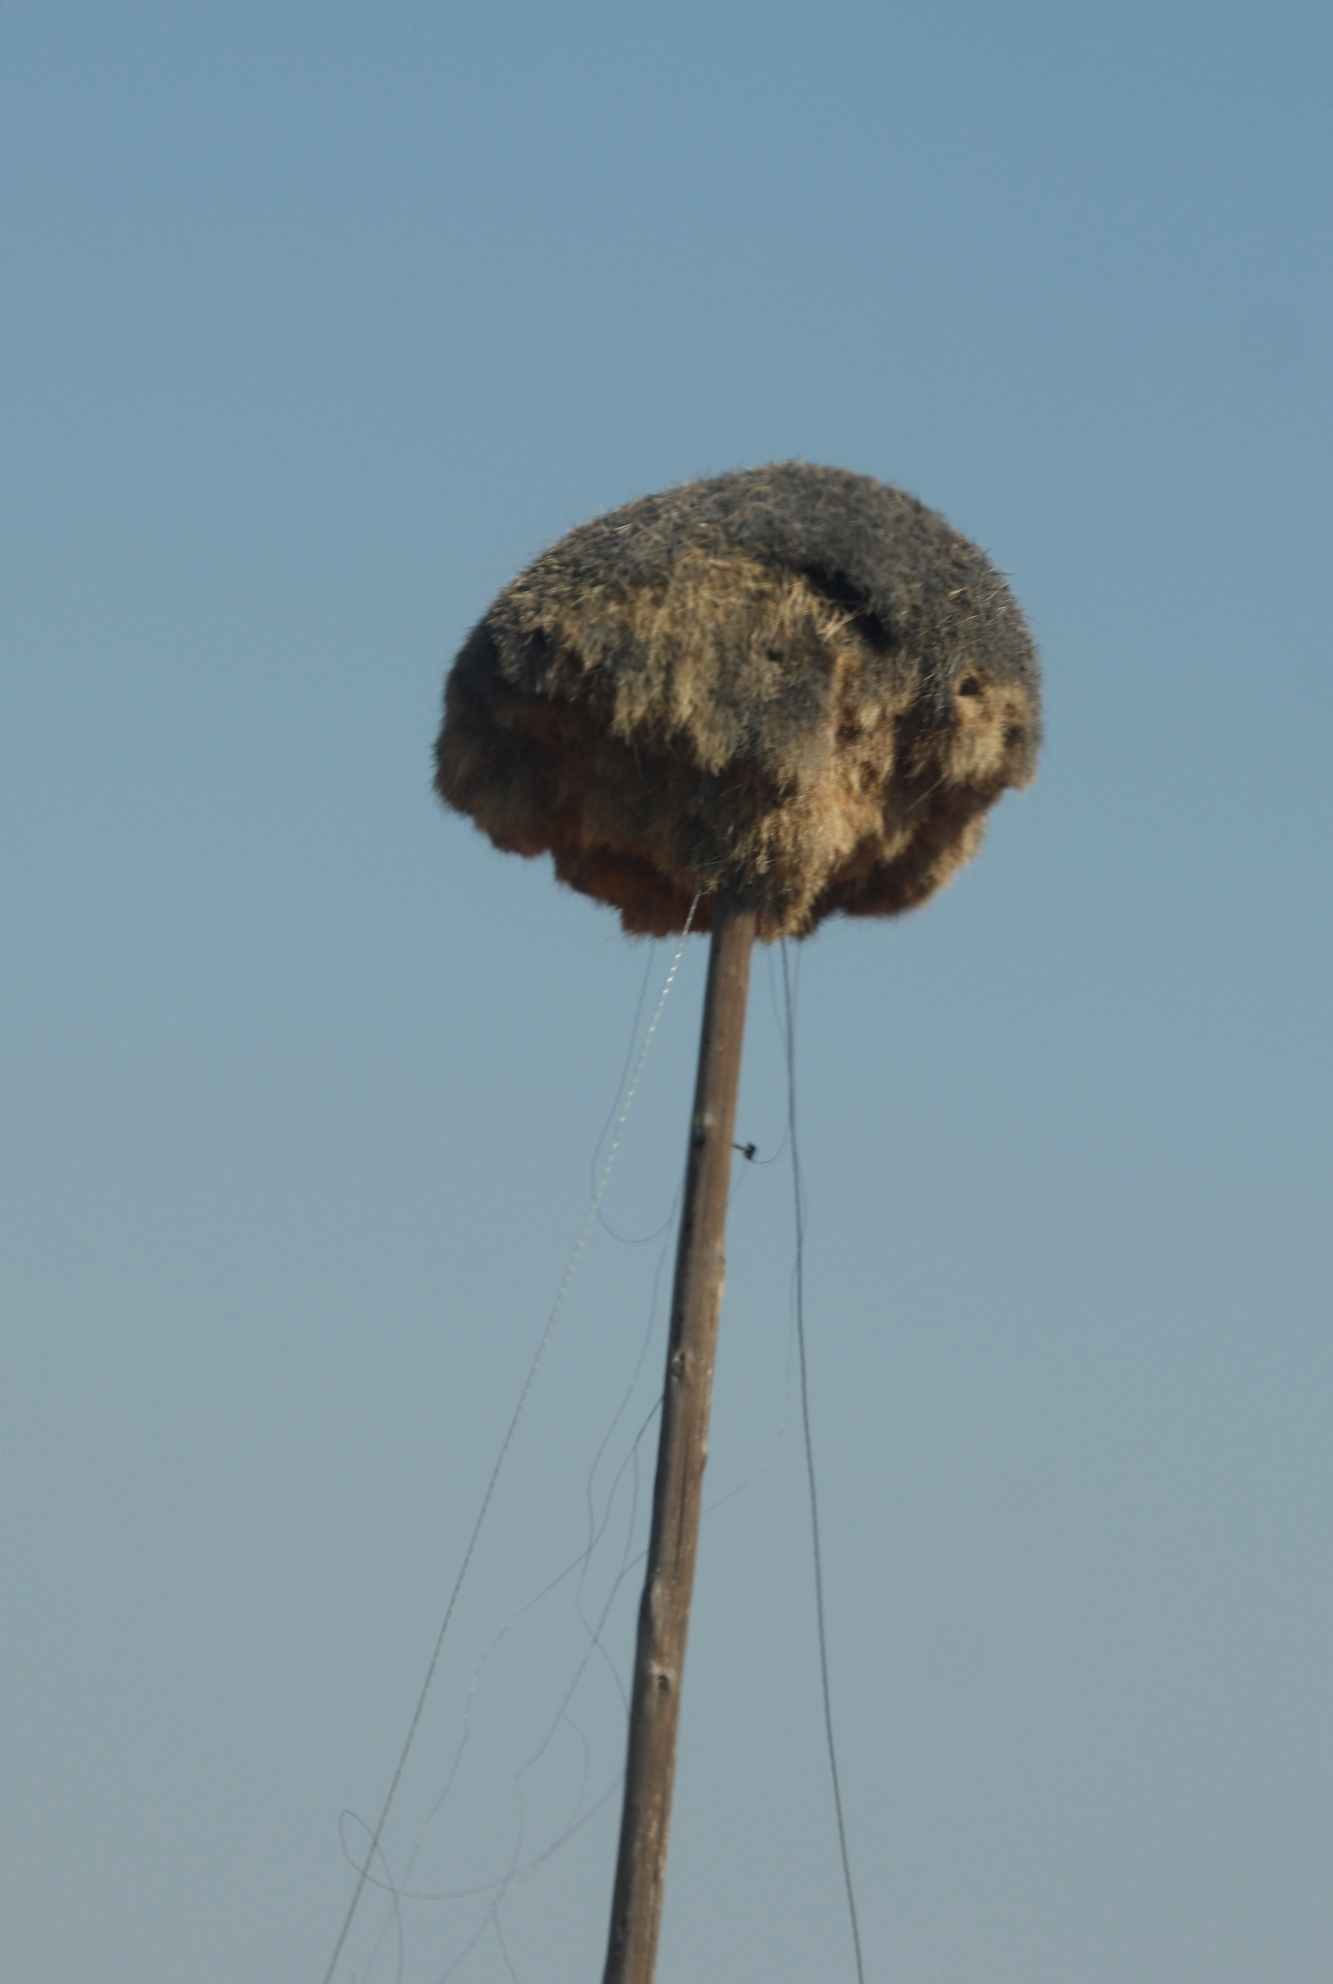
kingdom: Animalia
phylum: Chordata
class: Aves
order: Passeriformes
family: Passeridae
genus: Philetairus
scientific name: Philetairus socius
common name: Sociable weaver
